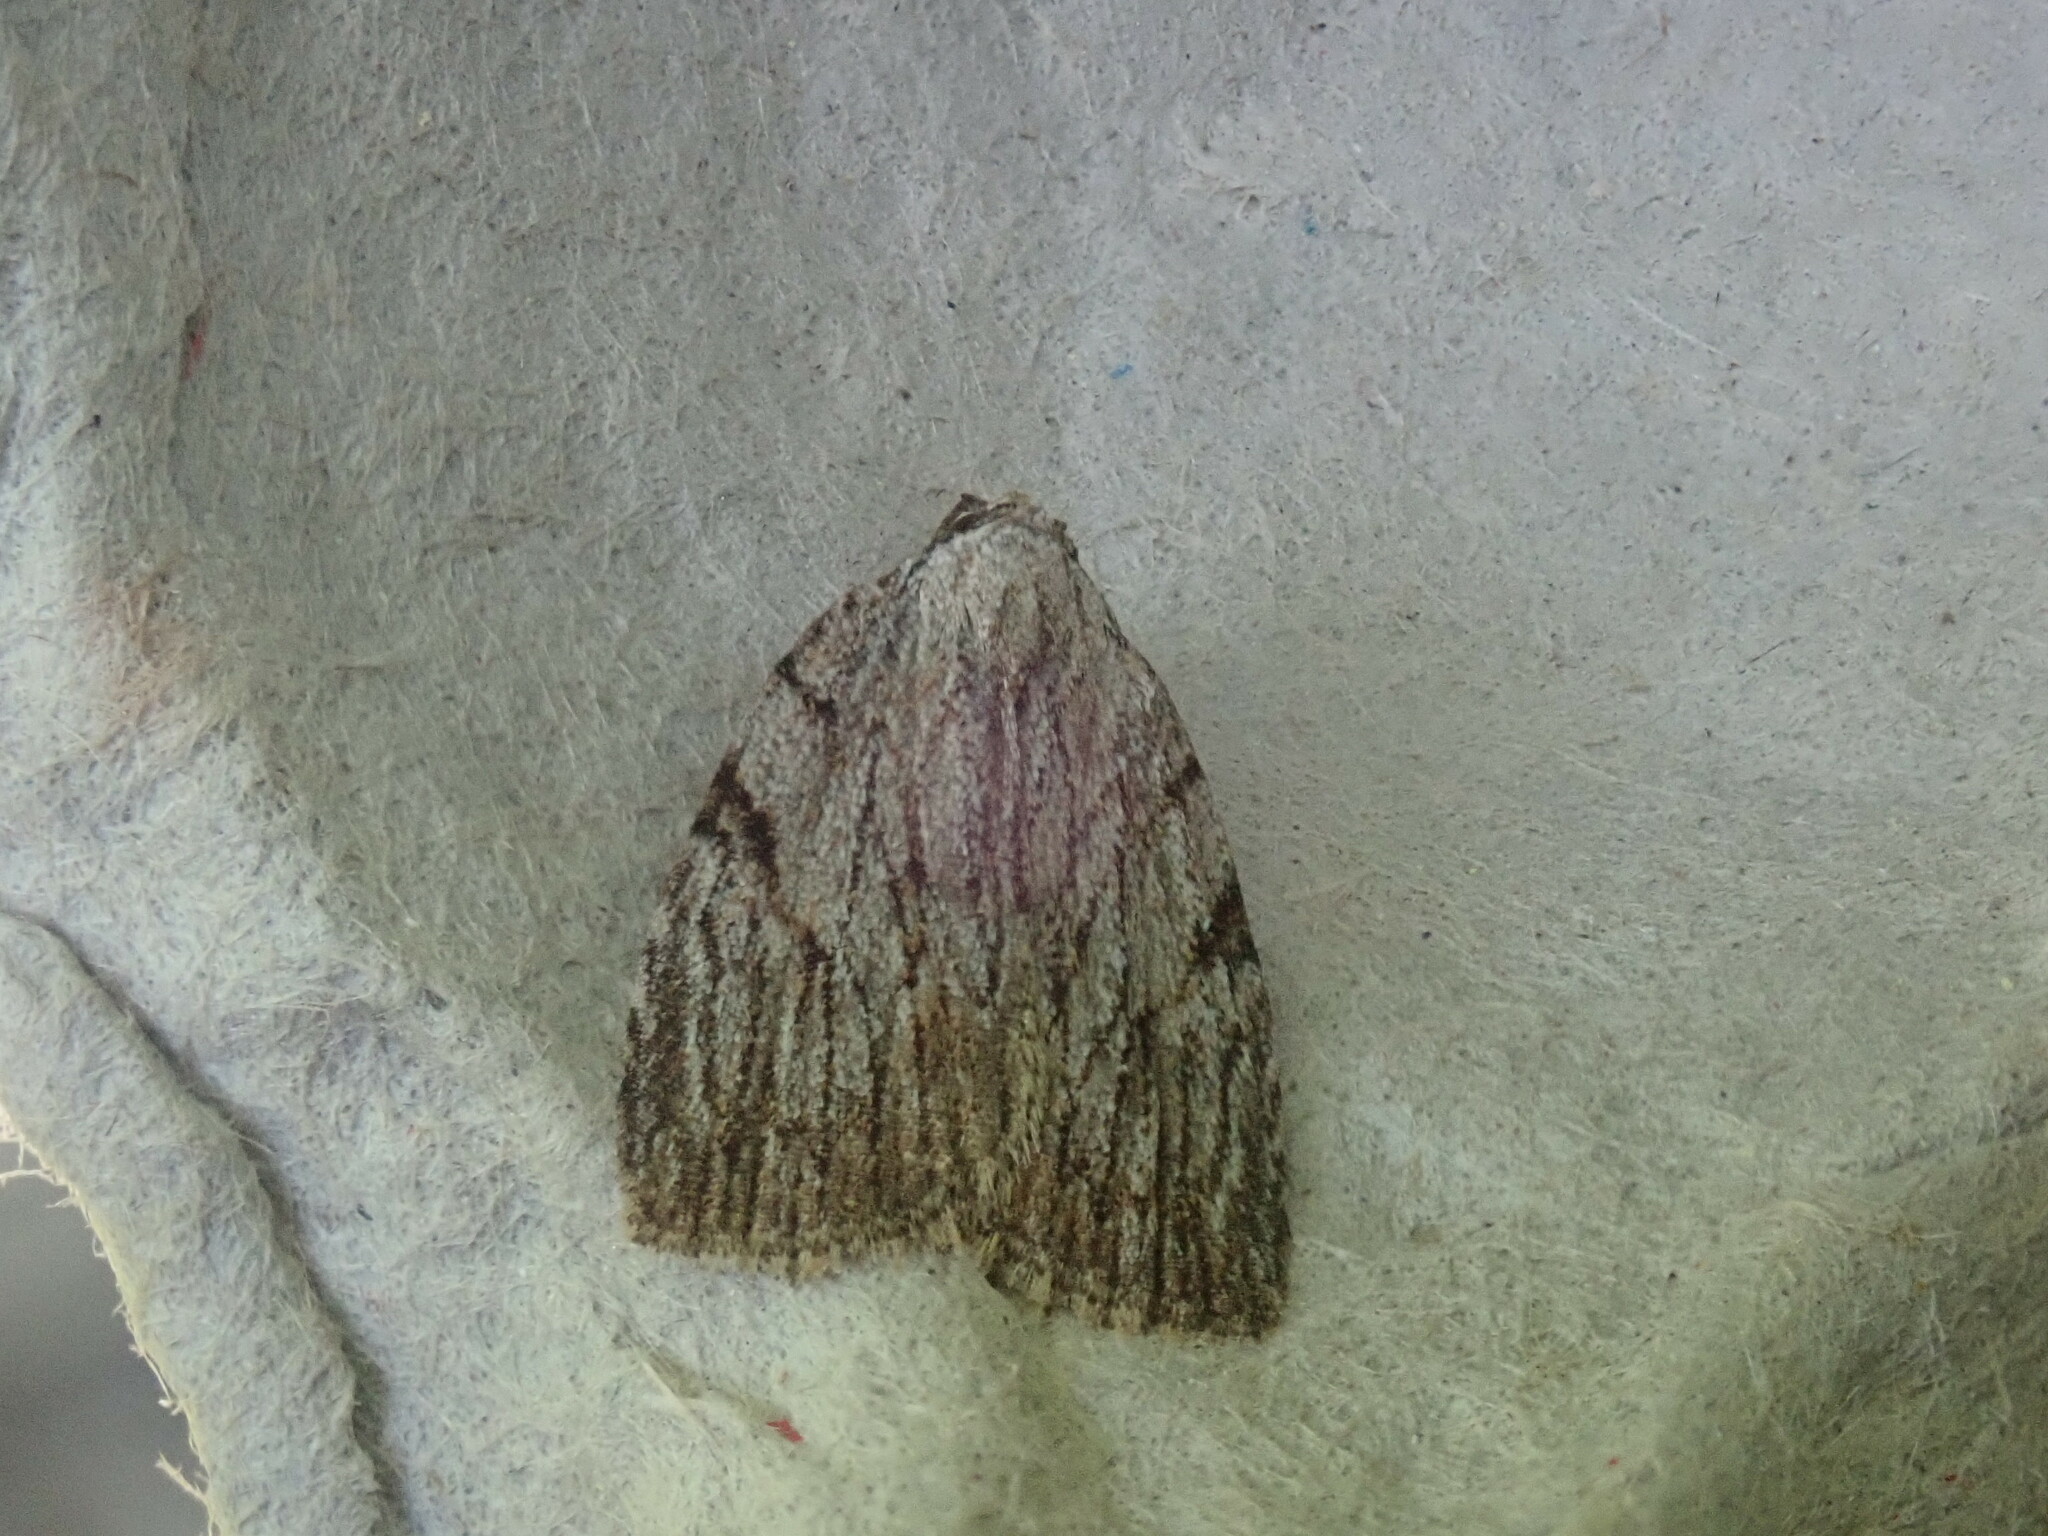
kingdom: Animalia
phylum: Arthropoda
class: Insecta
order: Lepidoptera
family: Noctuidae
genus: Balsa
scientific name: Balsa tristrigella
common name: Three-lined balsa moth
